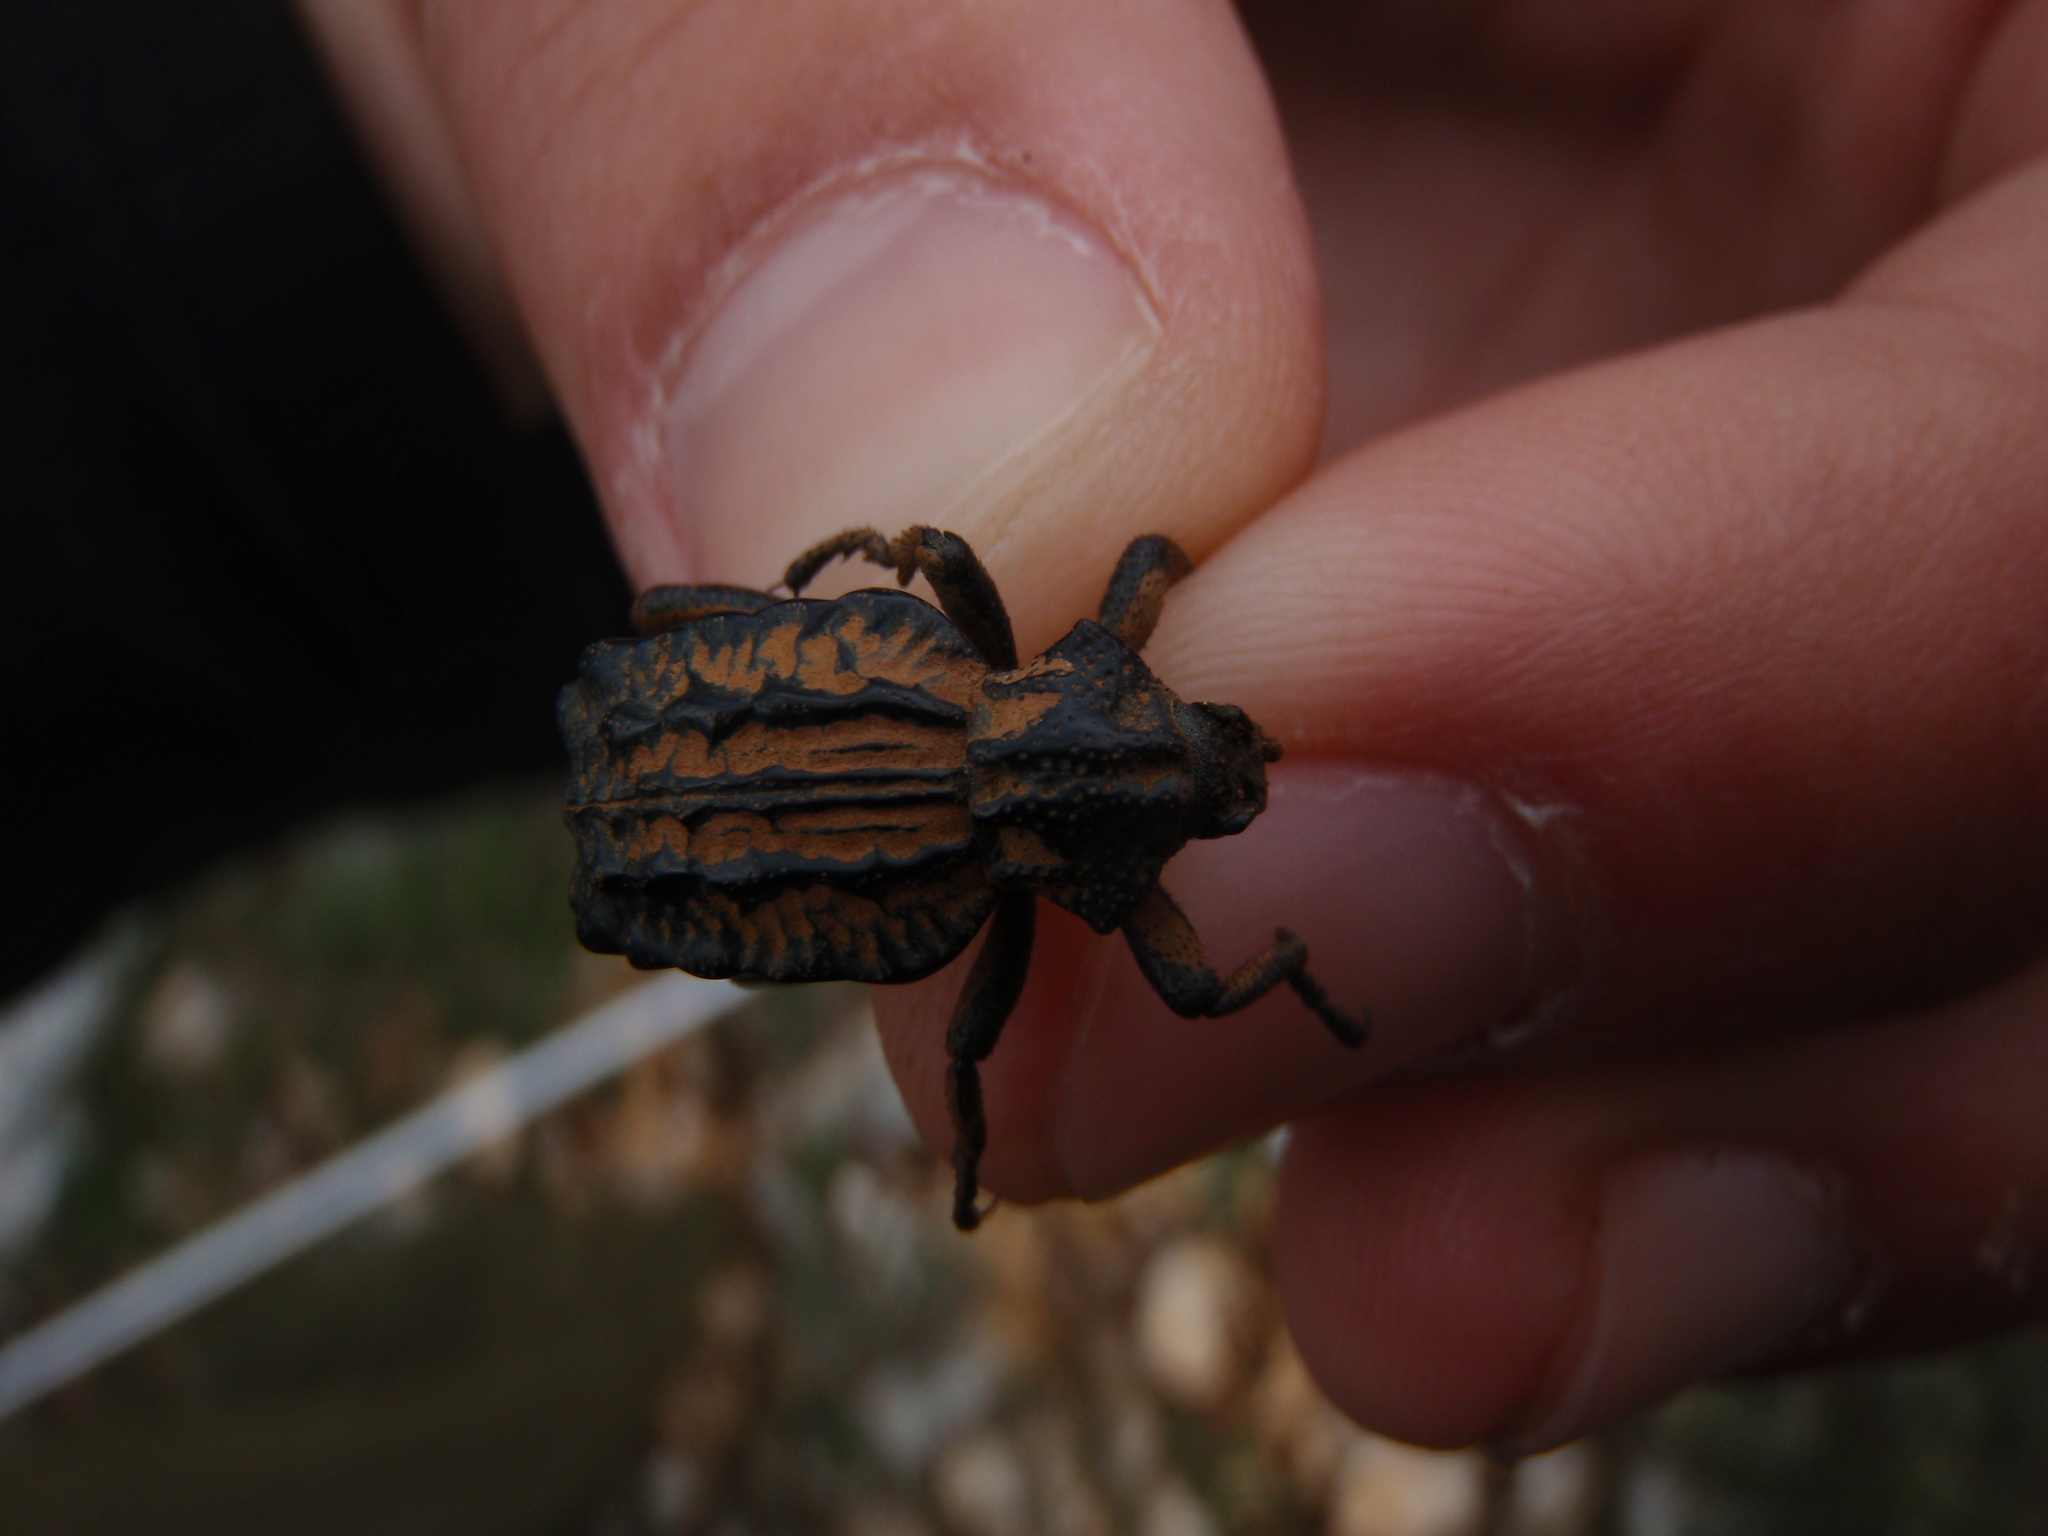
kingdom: Animalia
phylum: Arthropoda
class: Insecta
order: Coleoptera
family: Brachyceridae
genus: Brachycerus
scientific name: Brachycerus undatus
